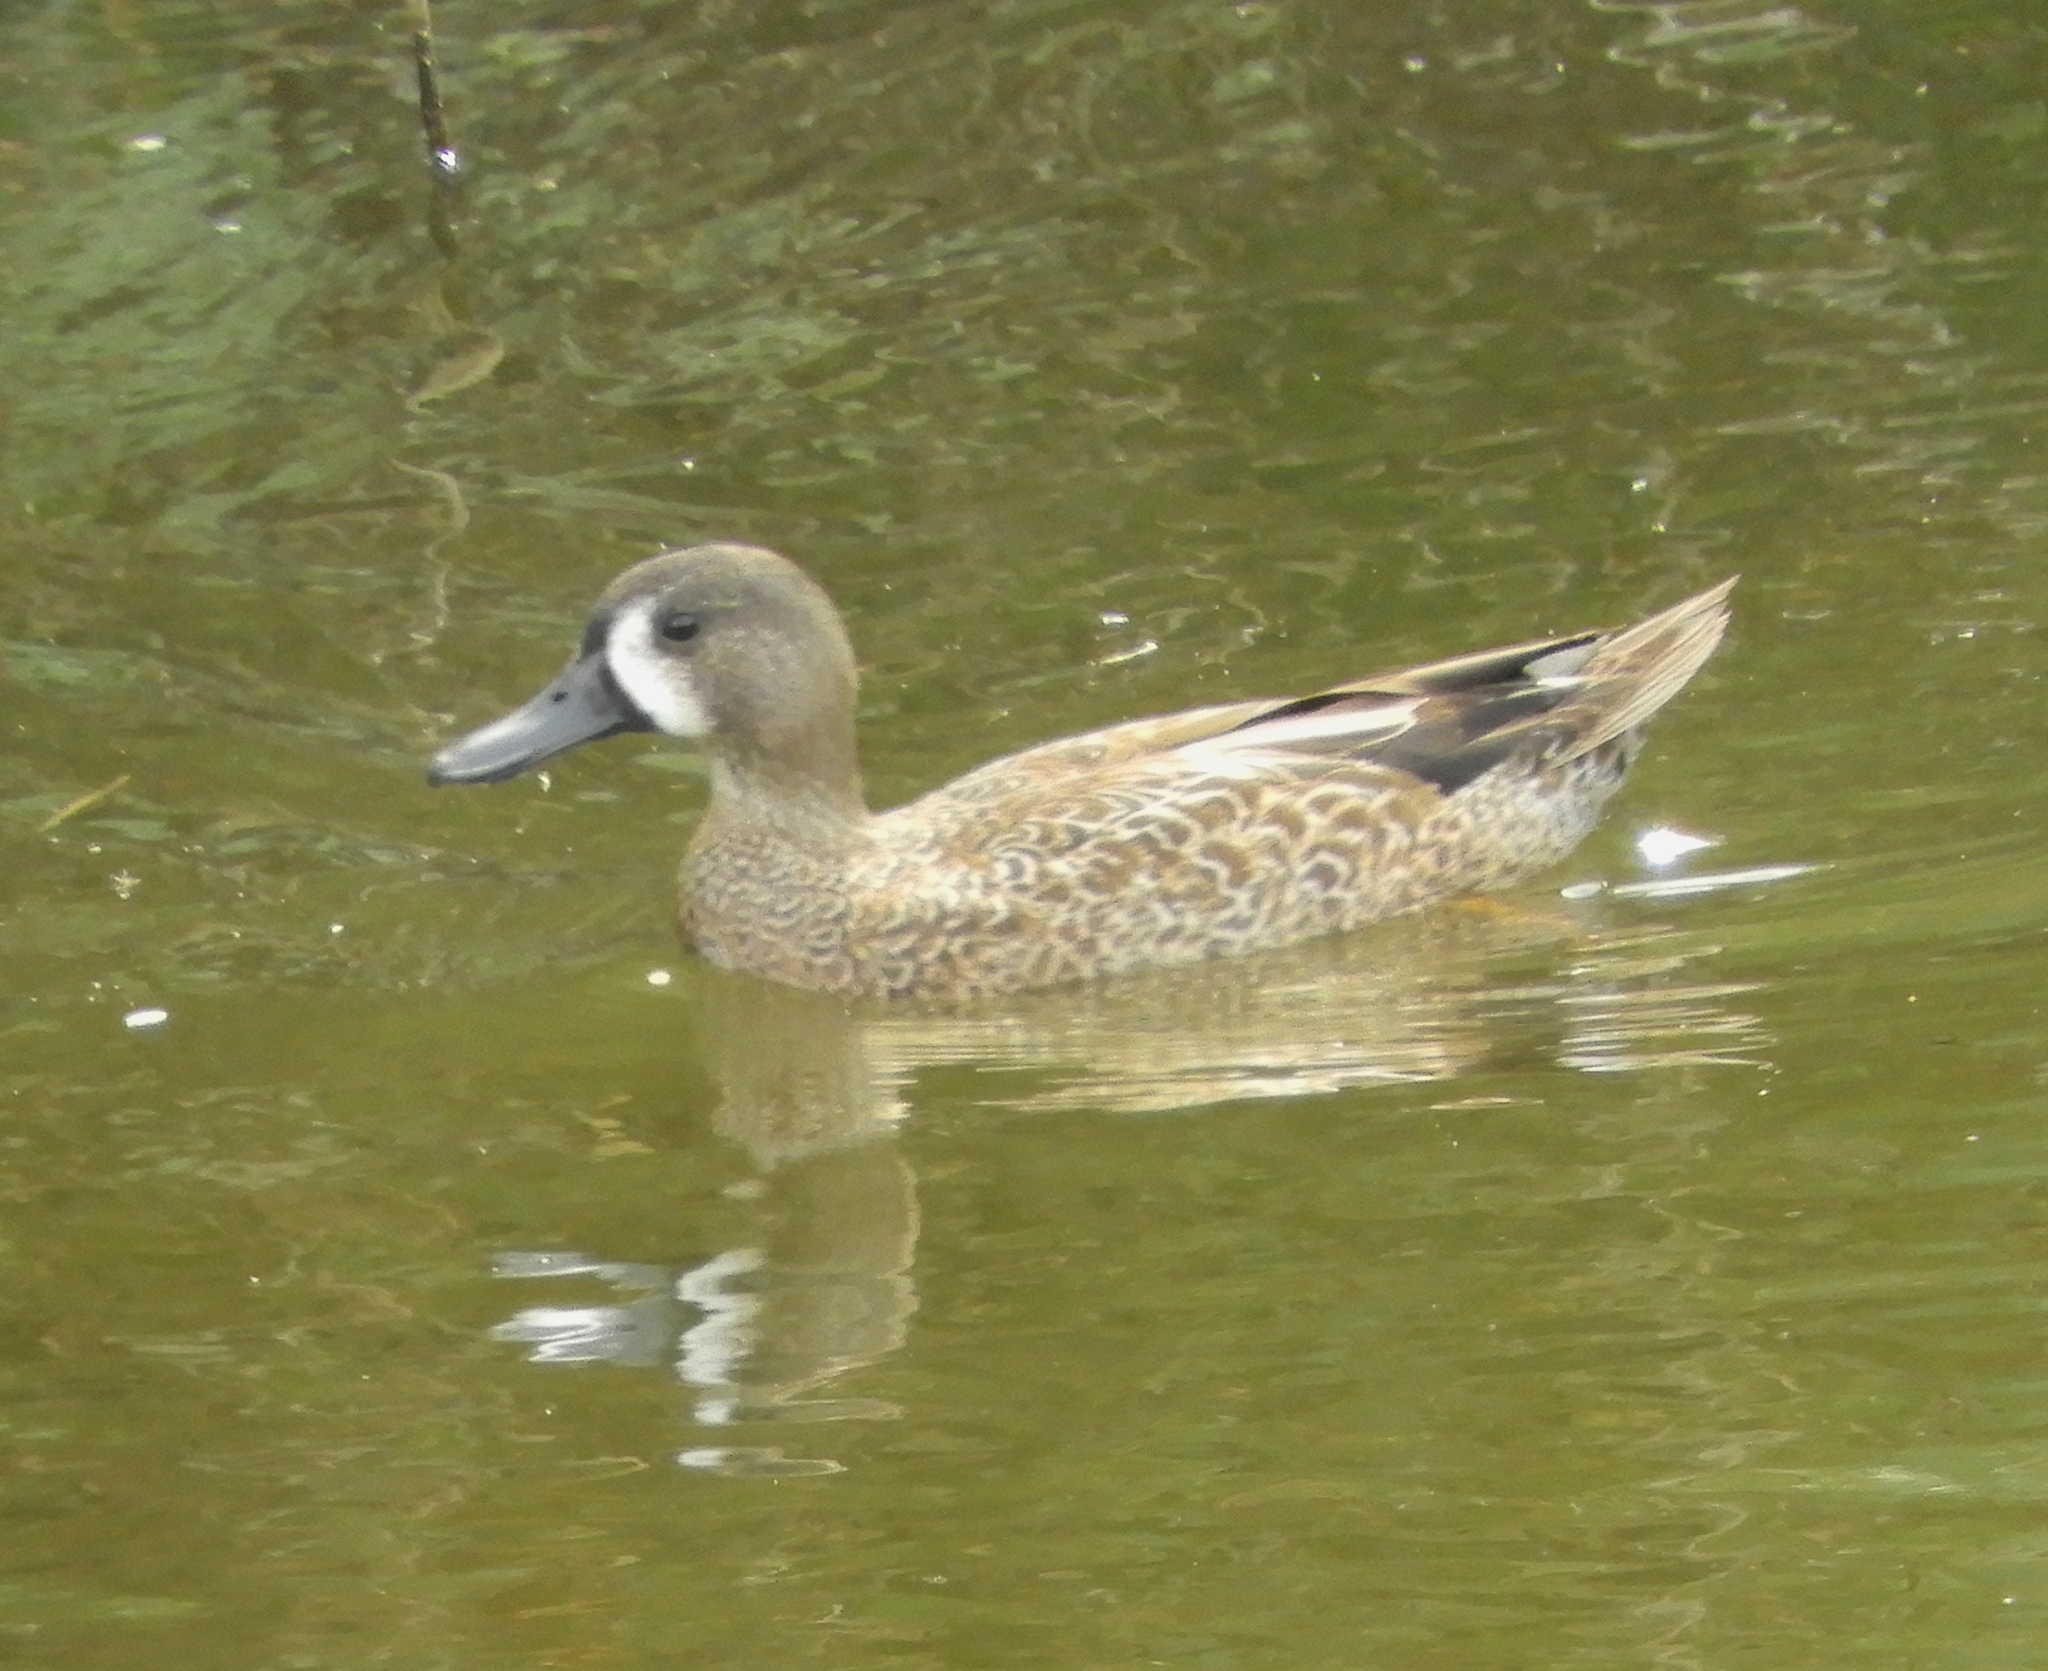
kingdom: Animalia
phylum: Chordata
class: Aves
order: Anseriformes
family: Anatidae
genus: Spatula
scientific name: Spatula discors
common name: Blue-winged teal
